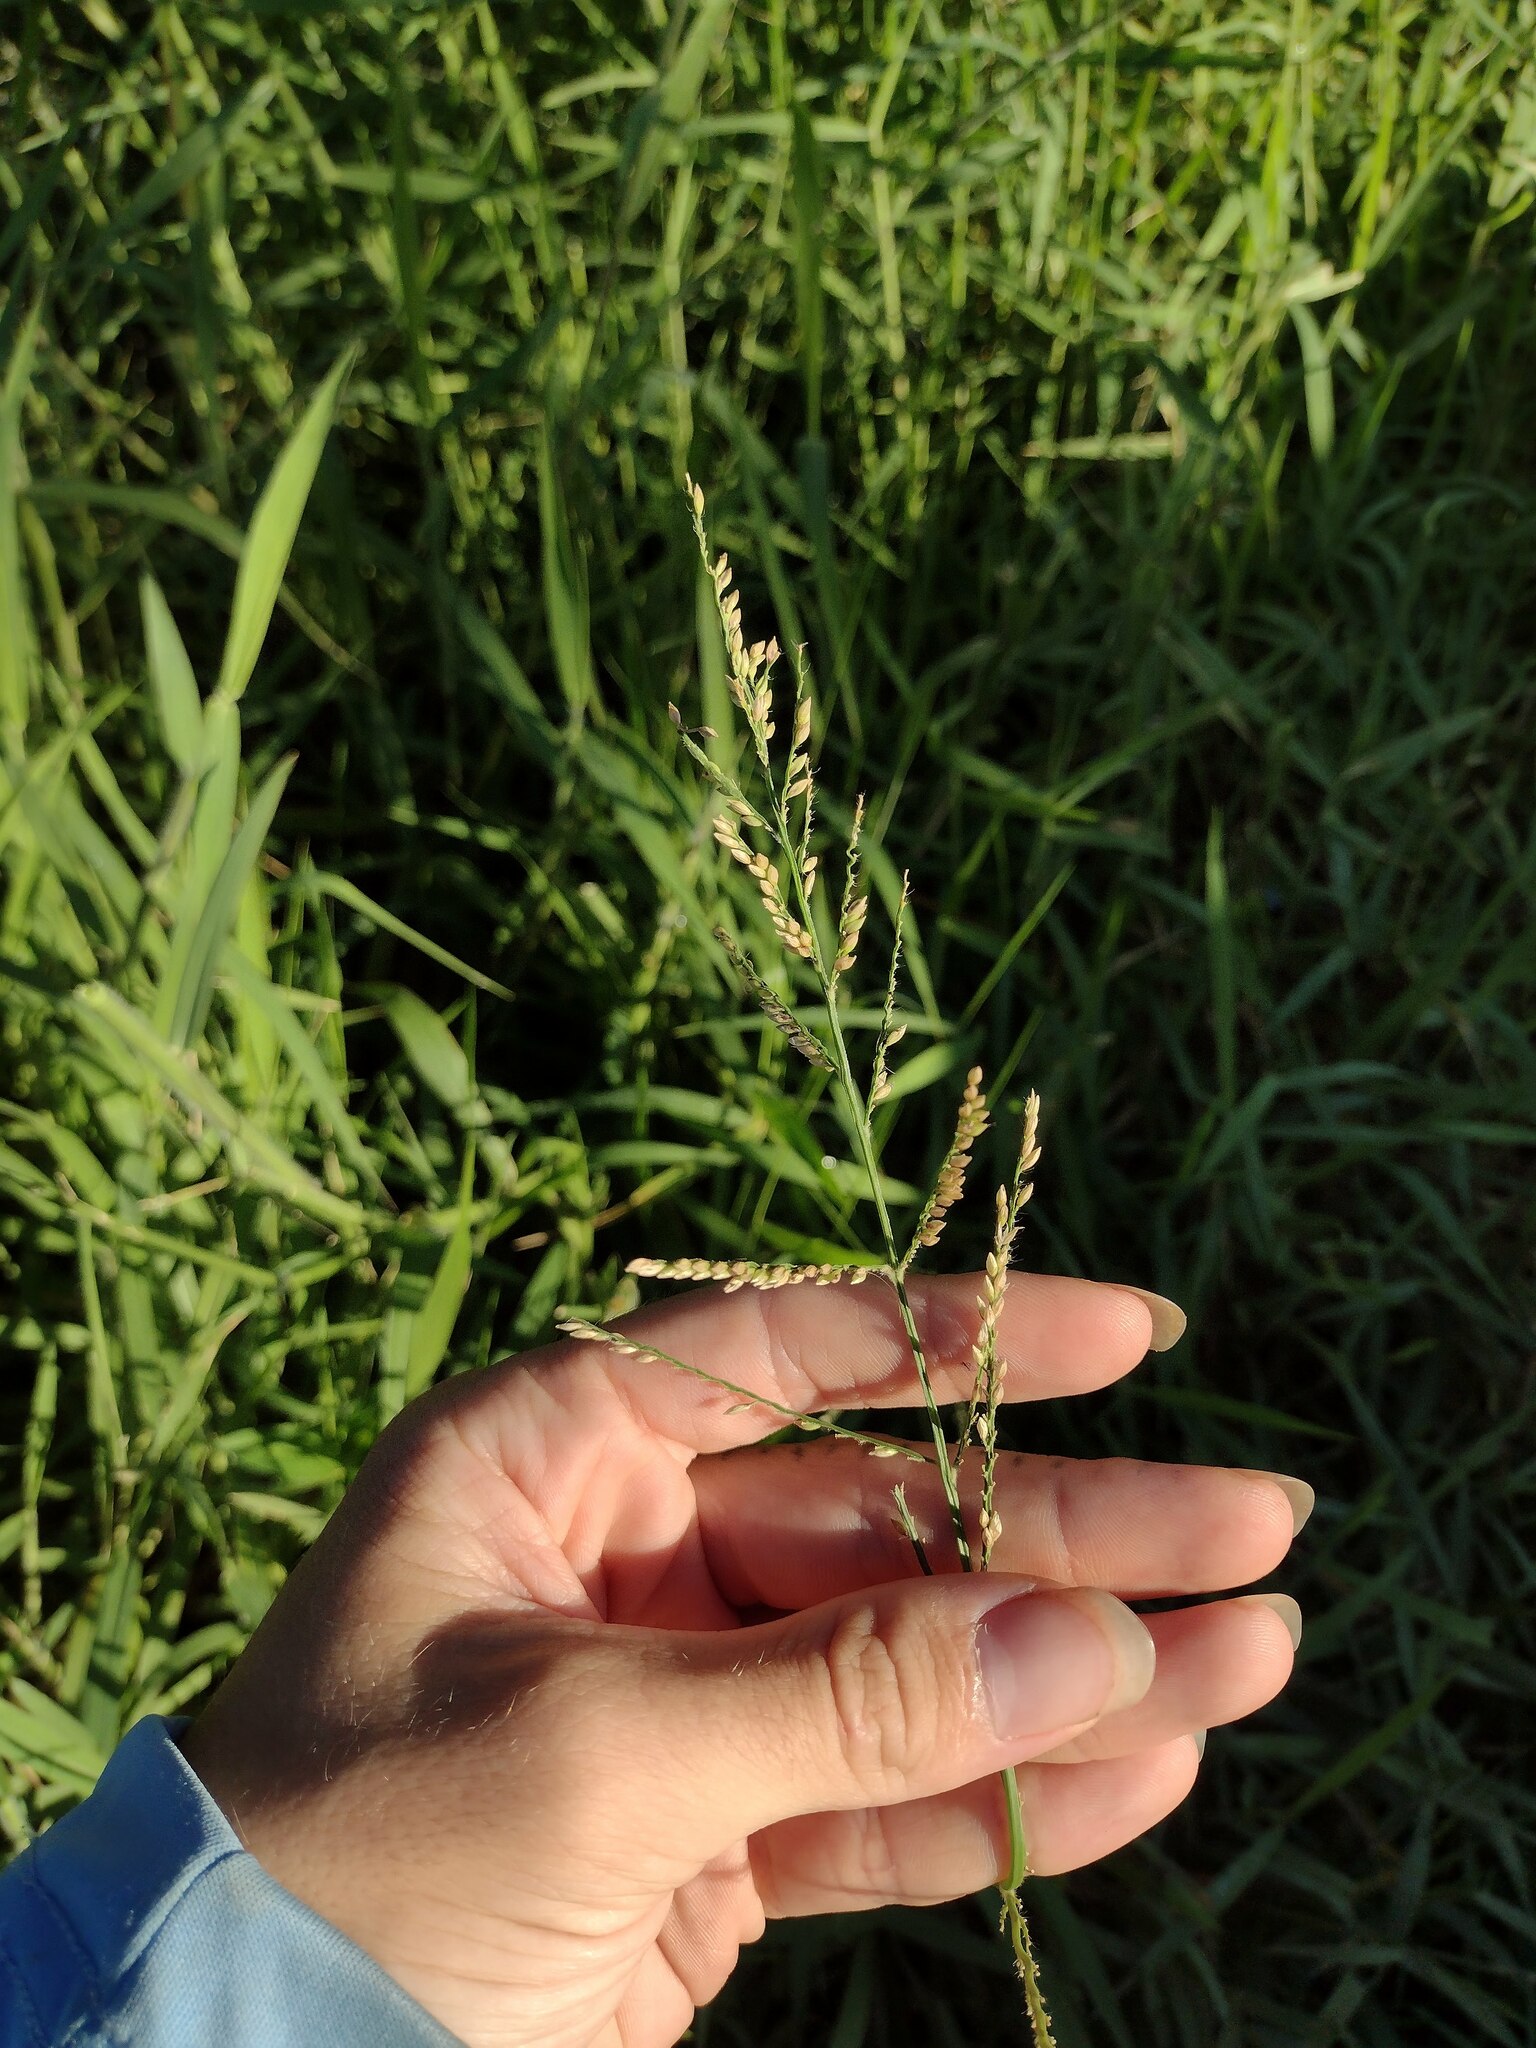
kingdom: Plantae
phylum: Tracheophyta
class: Liliopsida
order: Poales
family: Poaceae
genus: Urochloa
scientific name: Urochloa mutica
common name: Para grass
